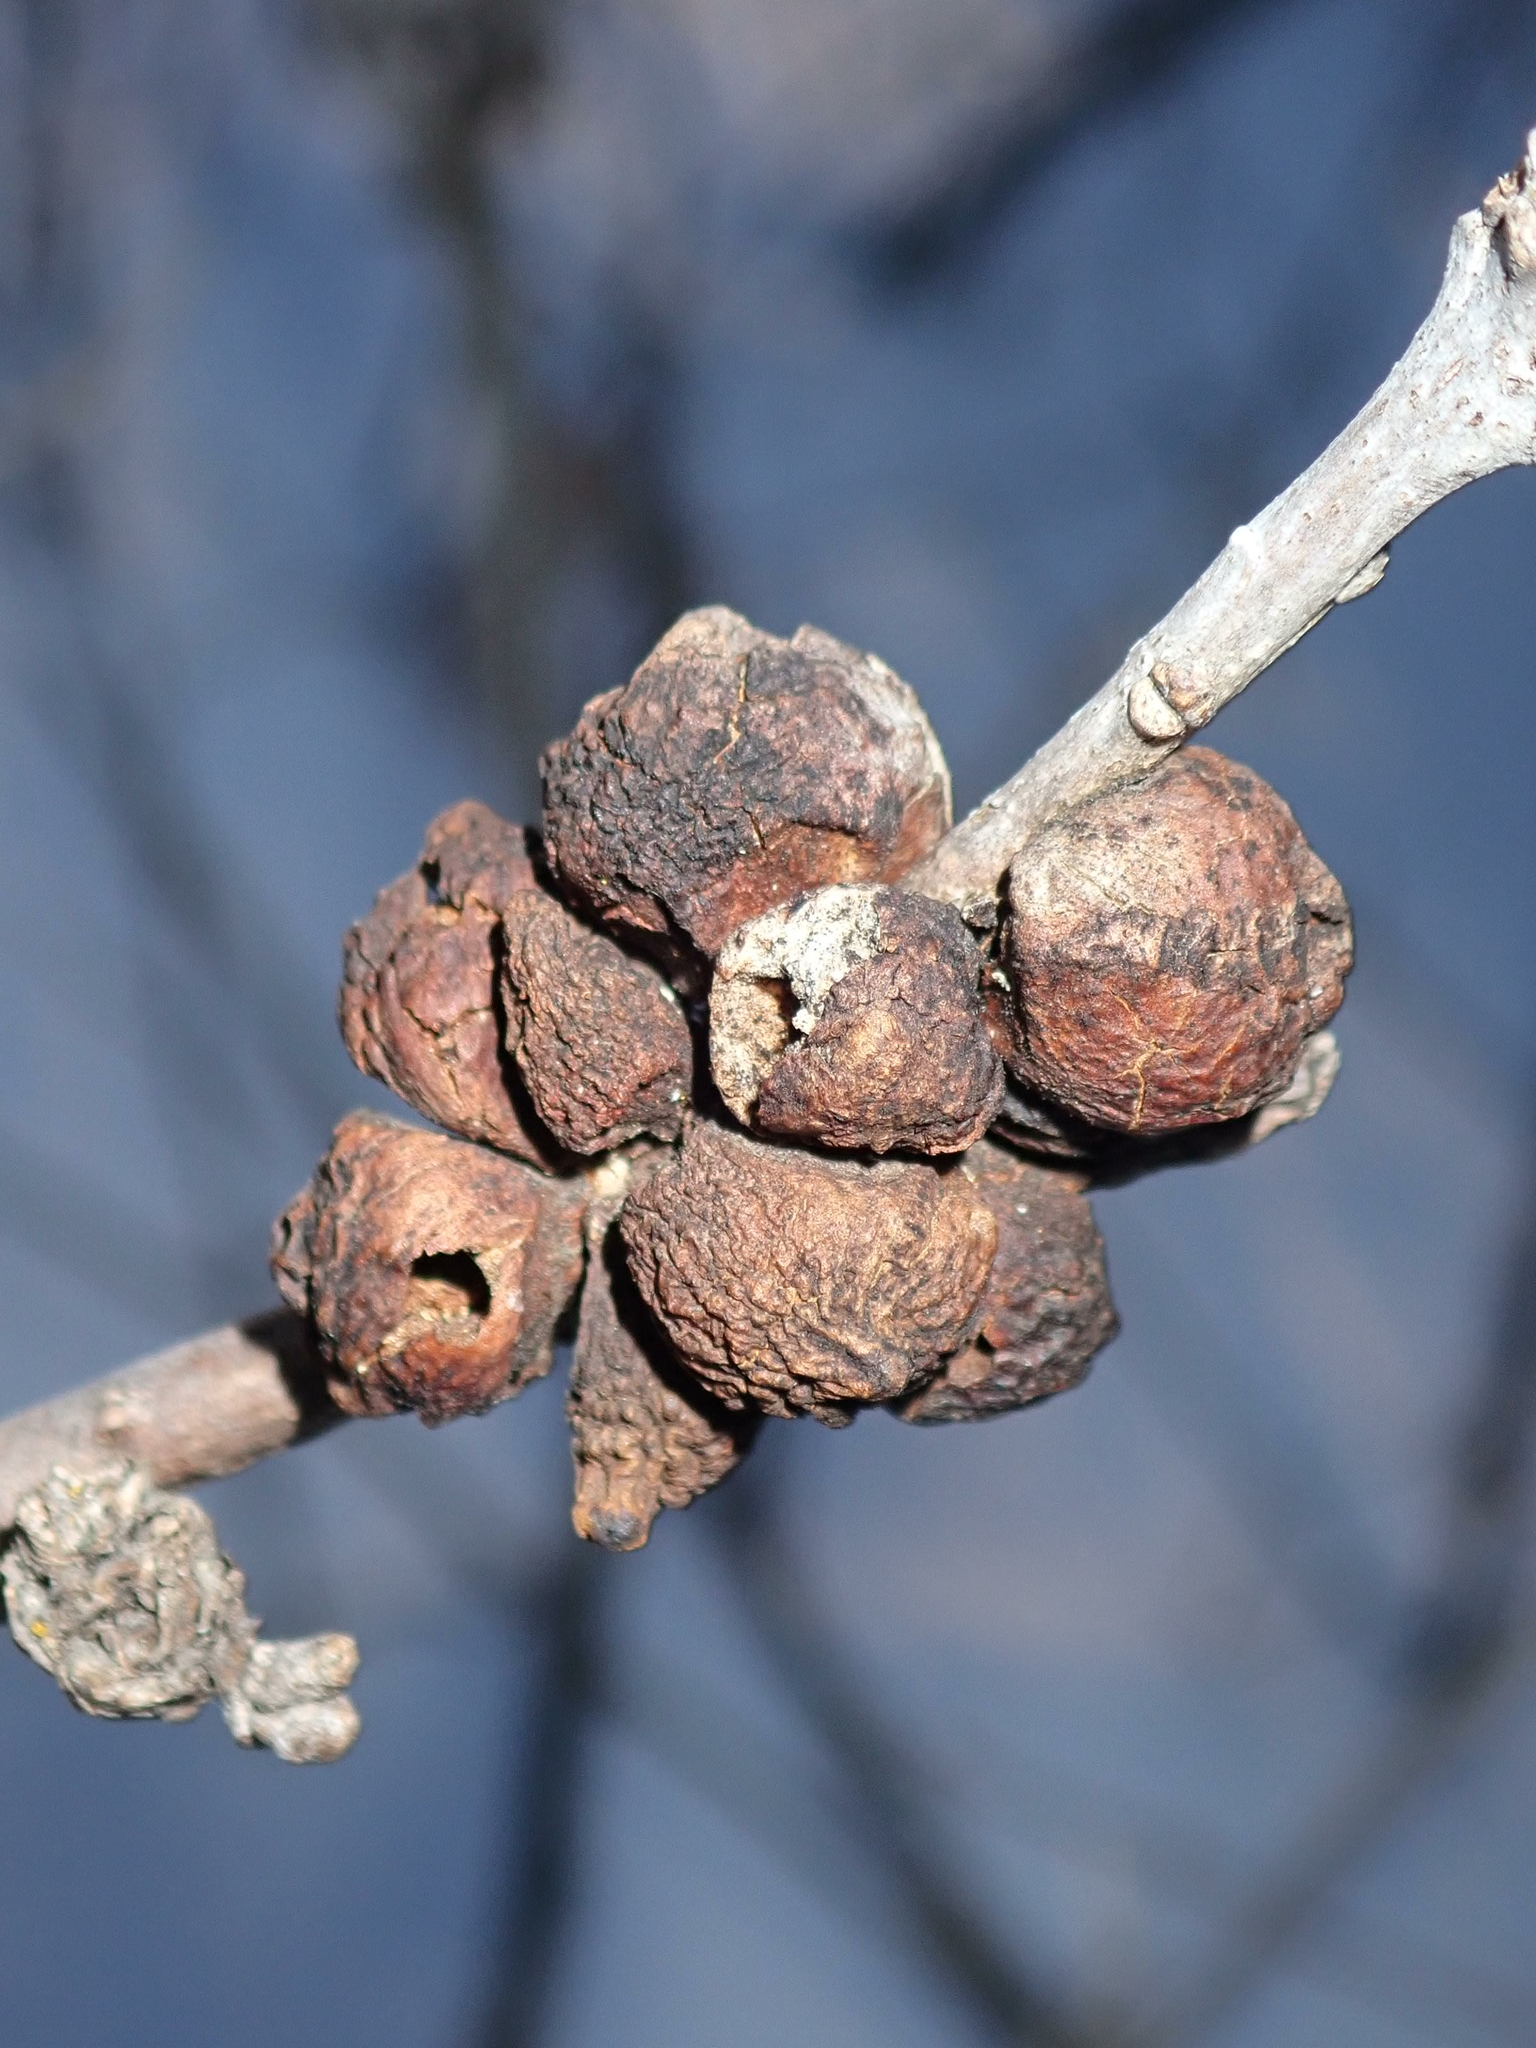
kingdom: Animalia
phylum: Arthropoda
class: Insecta
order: Hymenoptera
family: Cynipidae
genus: Disholcaspis
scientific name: Disholcaspis
